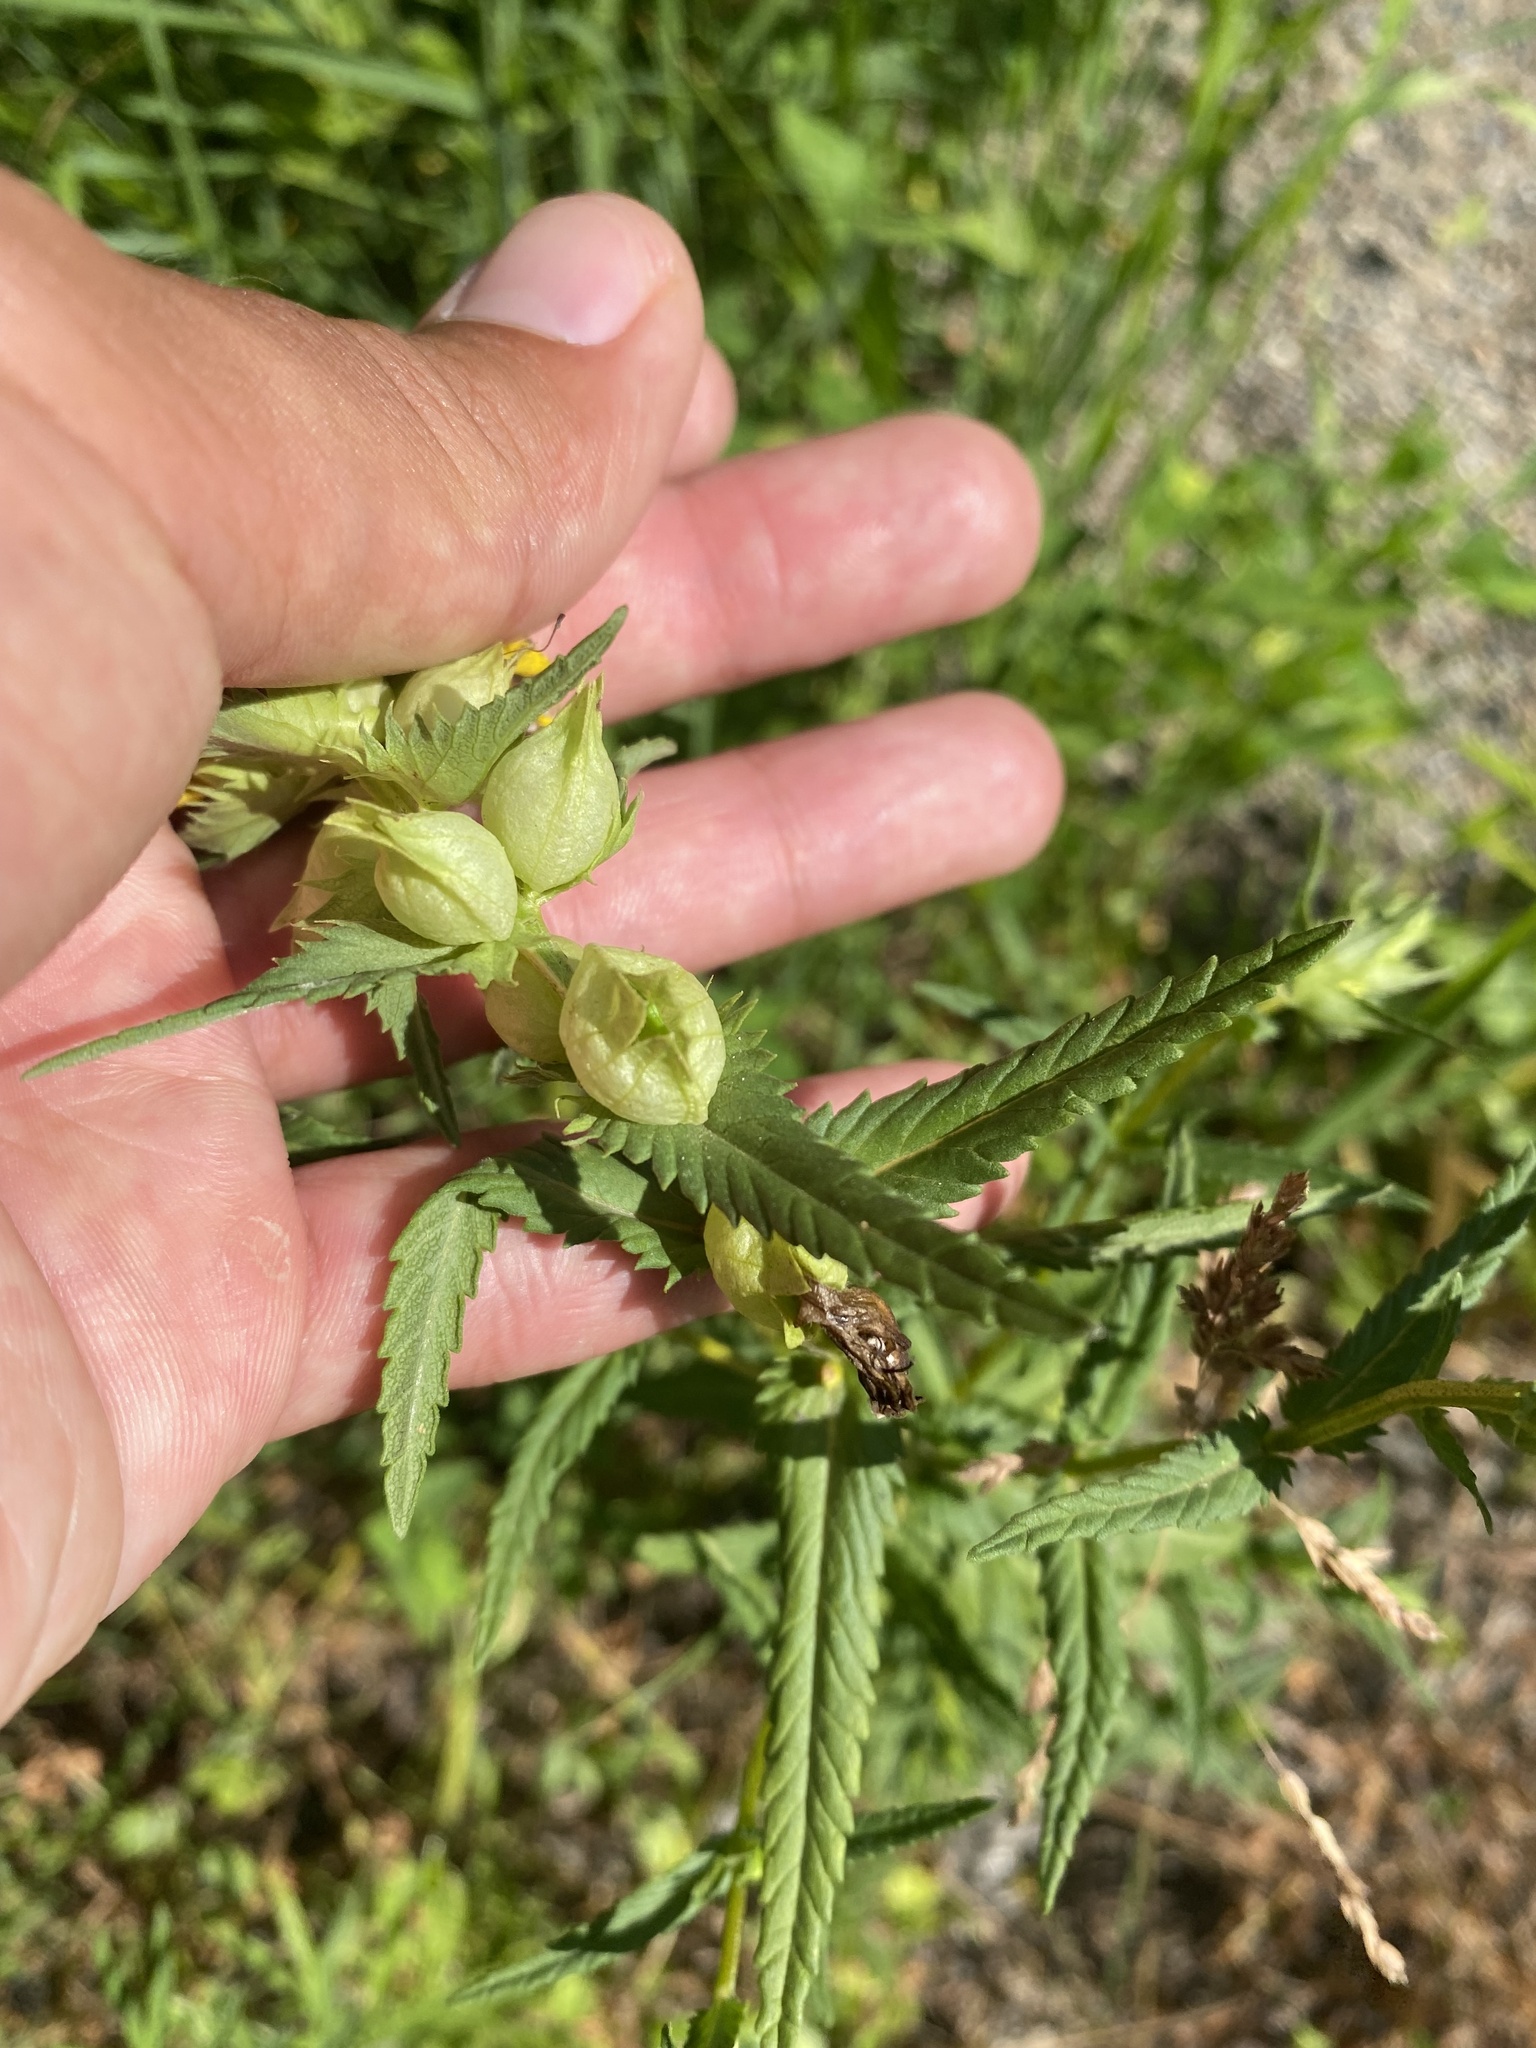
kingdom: Plantae
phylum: Tracheophyta
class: Magnoliopsida
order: Lamiales
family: Orobanchaceae
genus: Rhinanthus
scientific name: Rhinanthus serotinus
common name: Late-flowering yellow rattle
